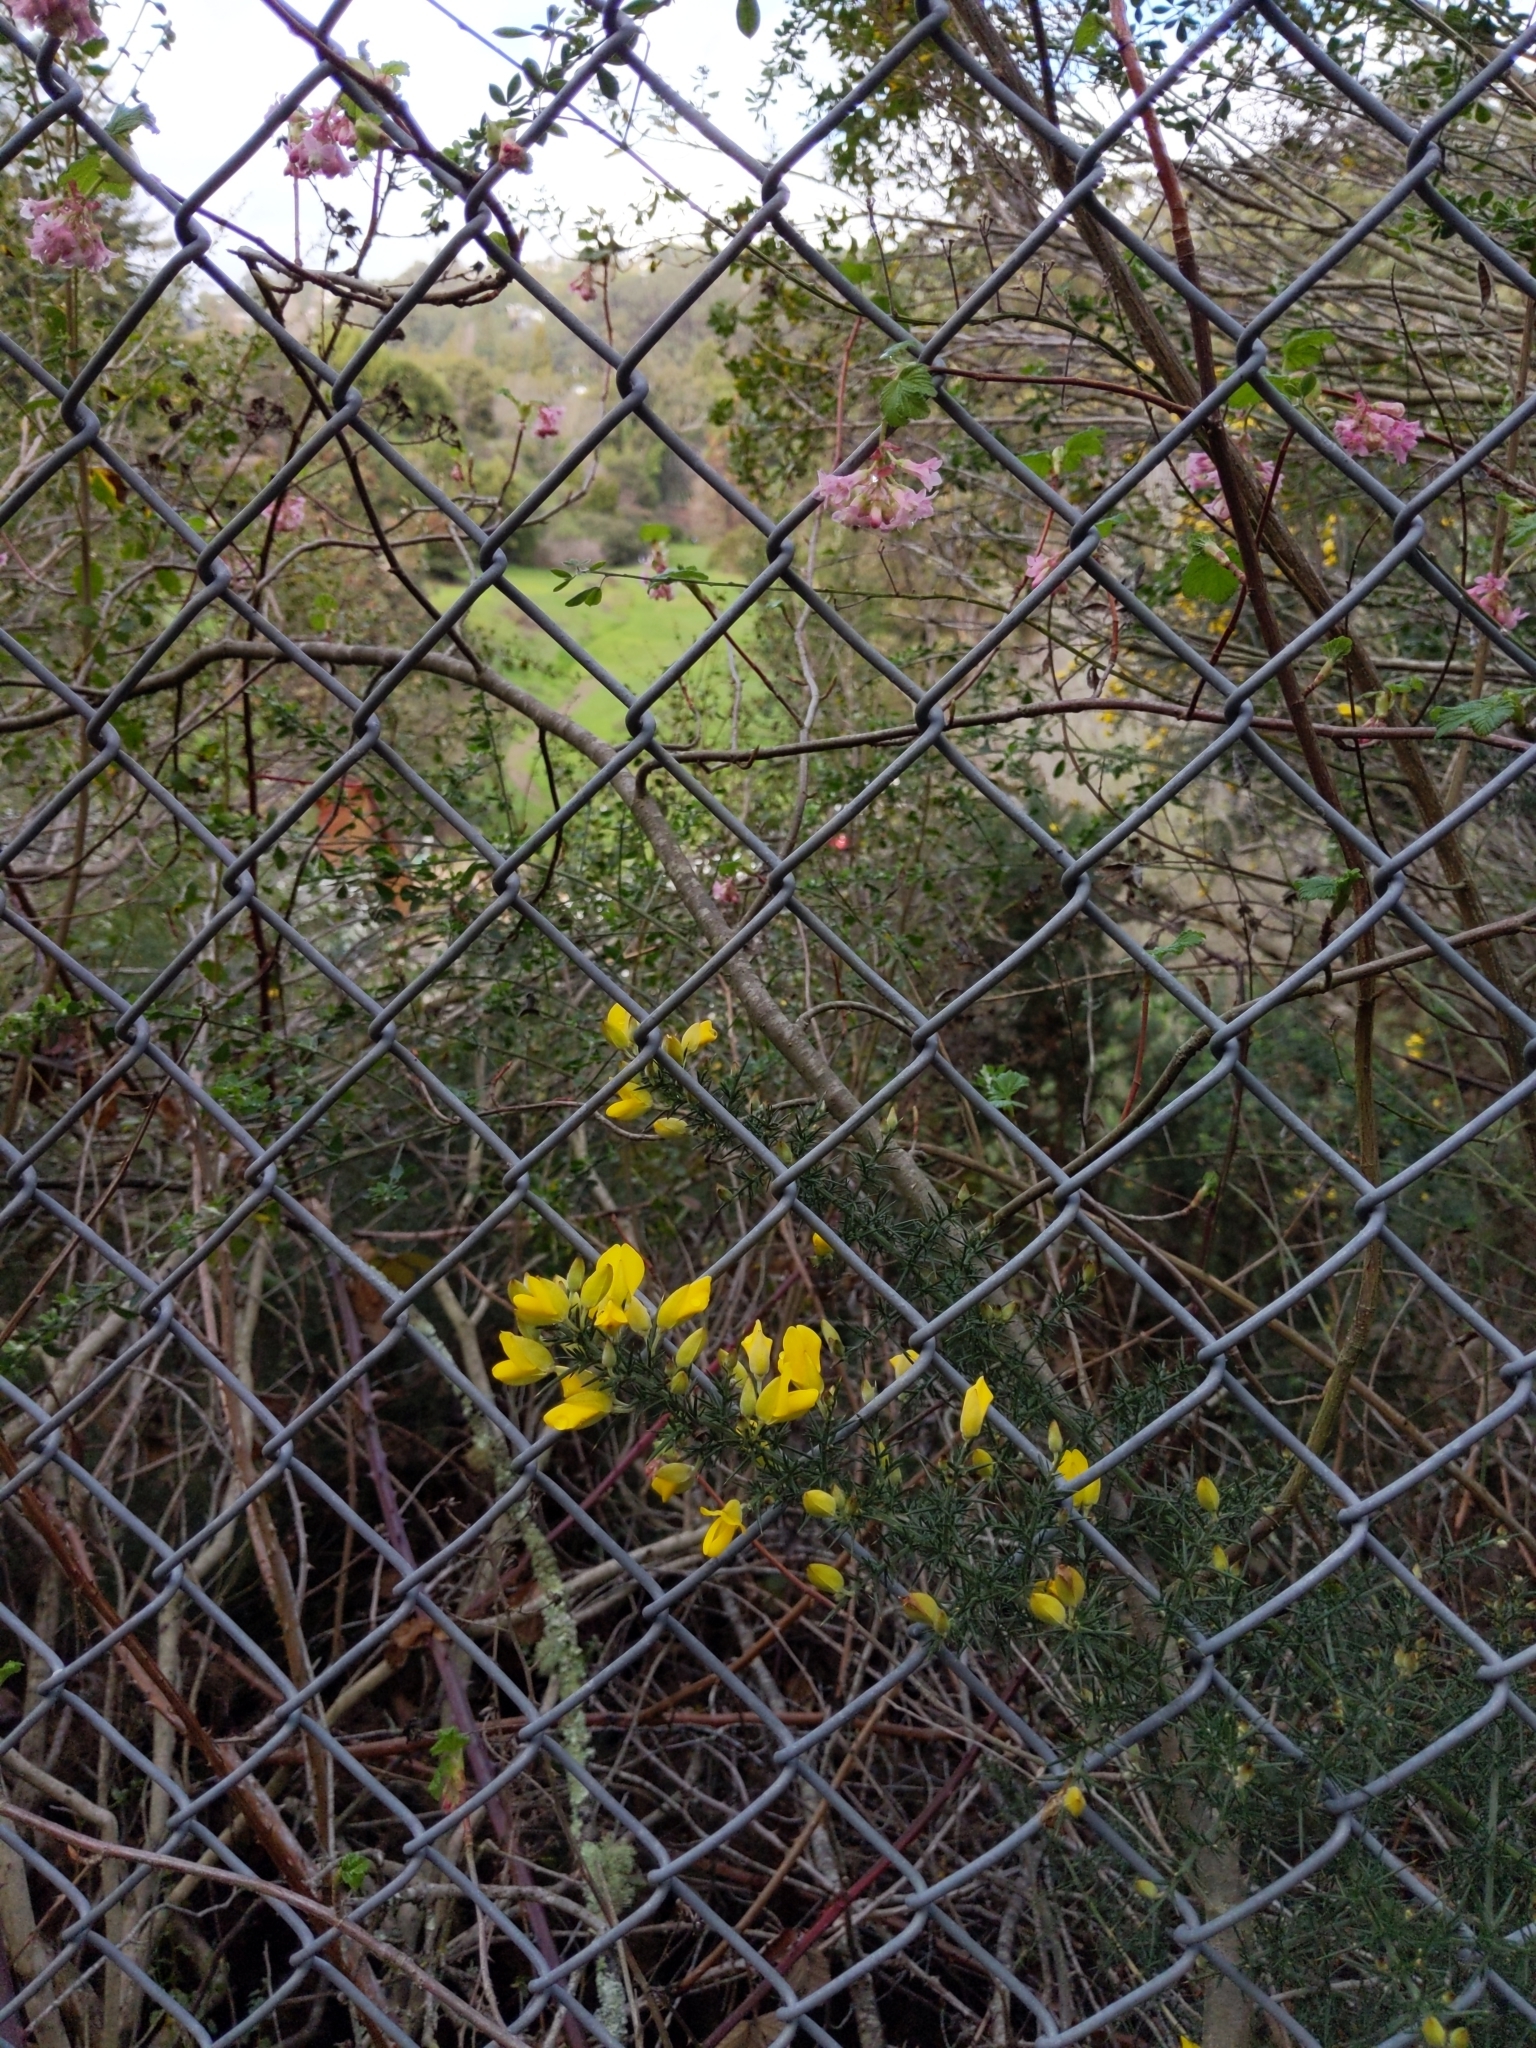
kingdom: Plantae
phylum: Tracheophyta
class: Magnoliopsida
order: Saxifragales
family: Grossulariaceae
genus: Ribes
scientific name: Ribes sanguineum
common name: Flowering currant
